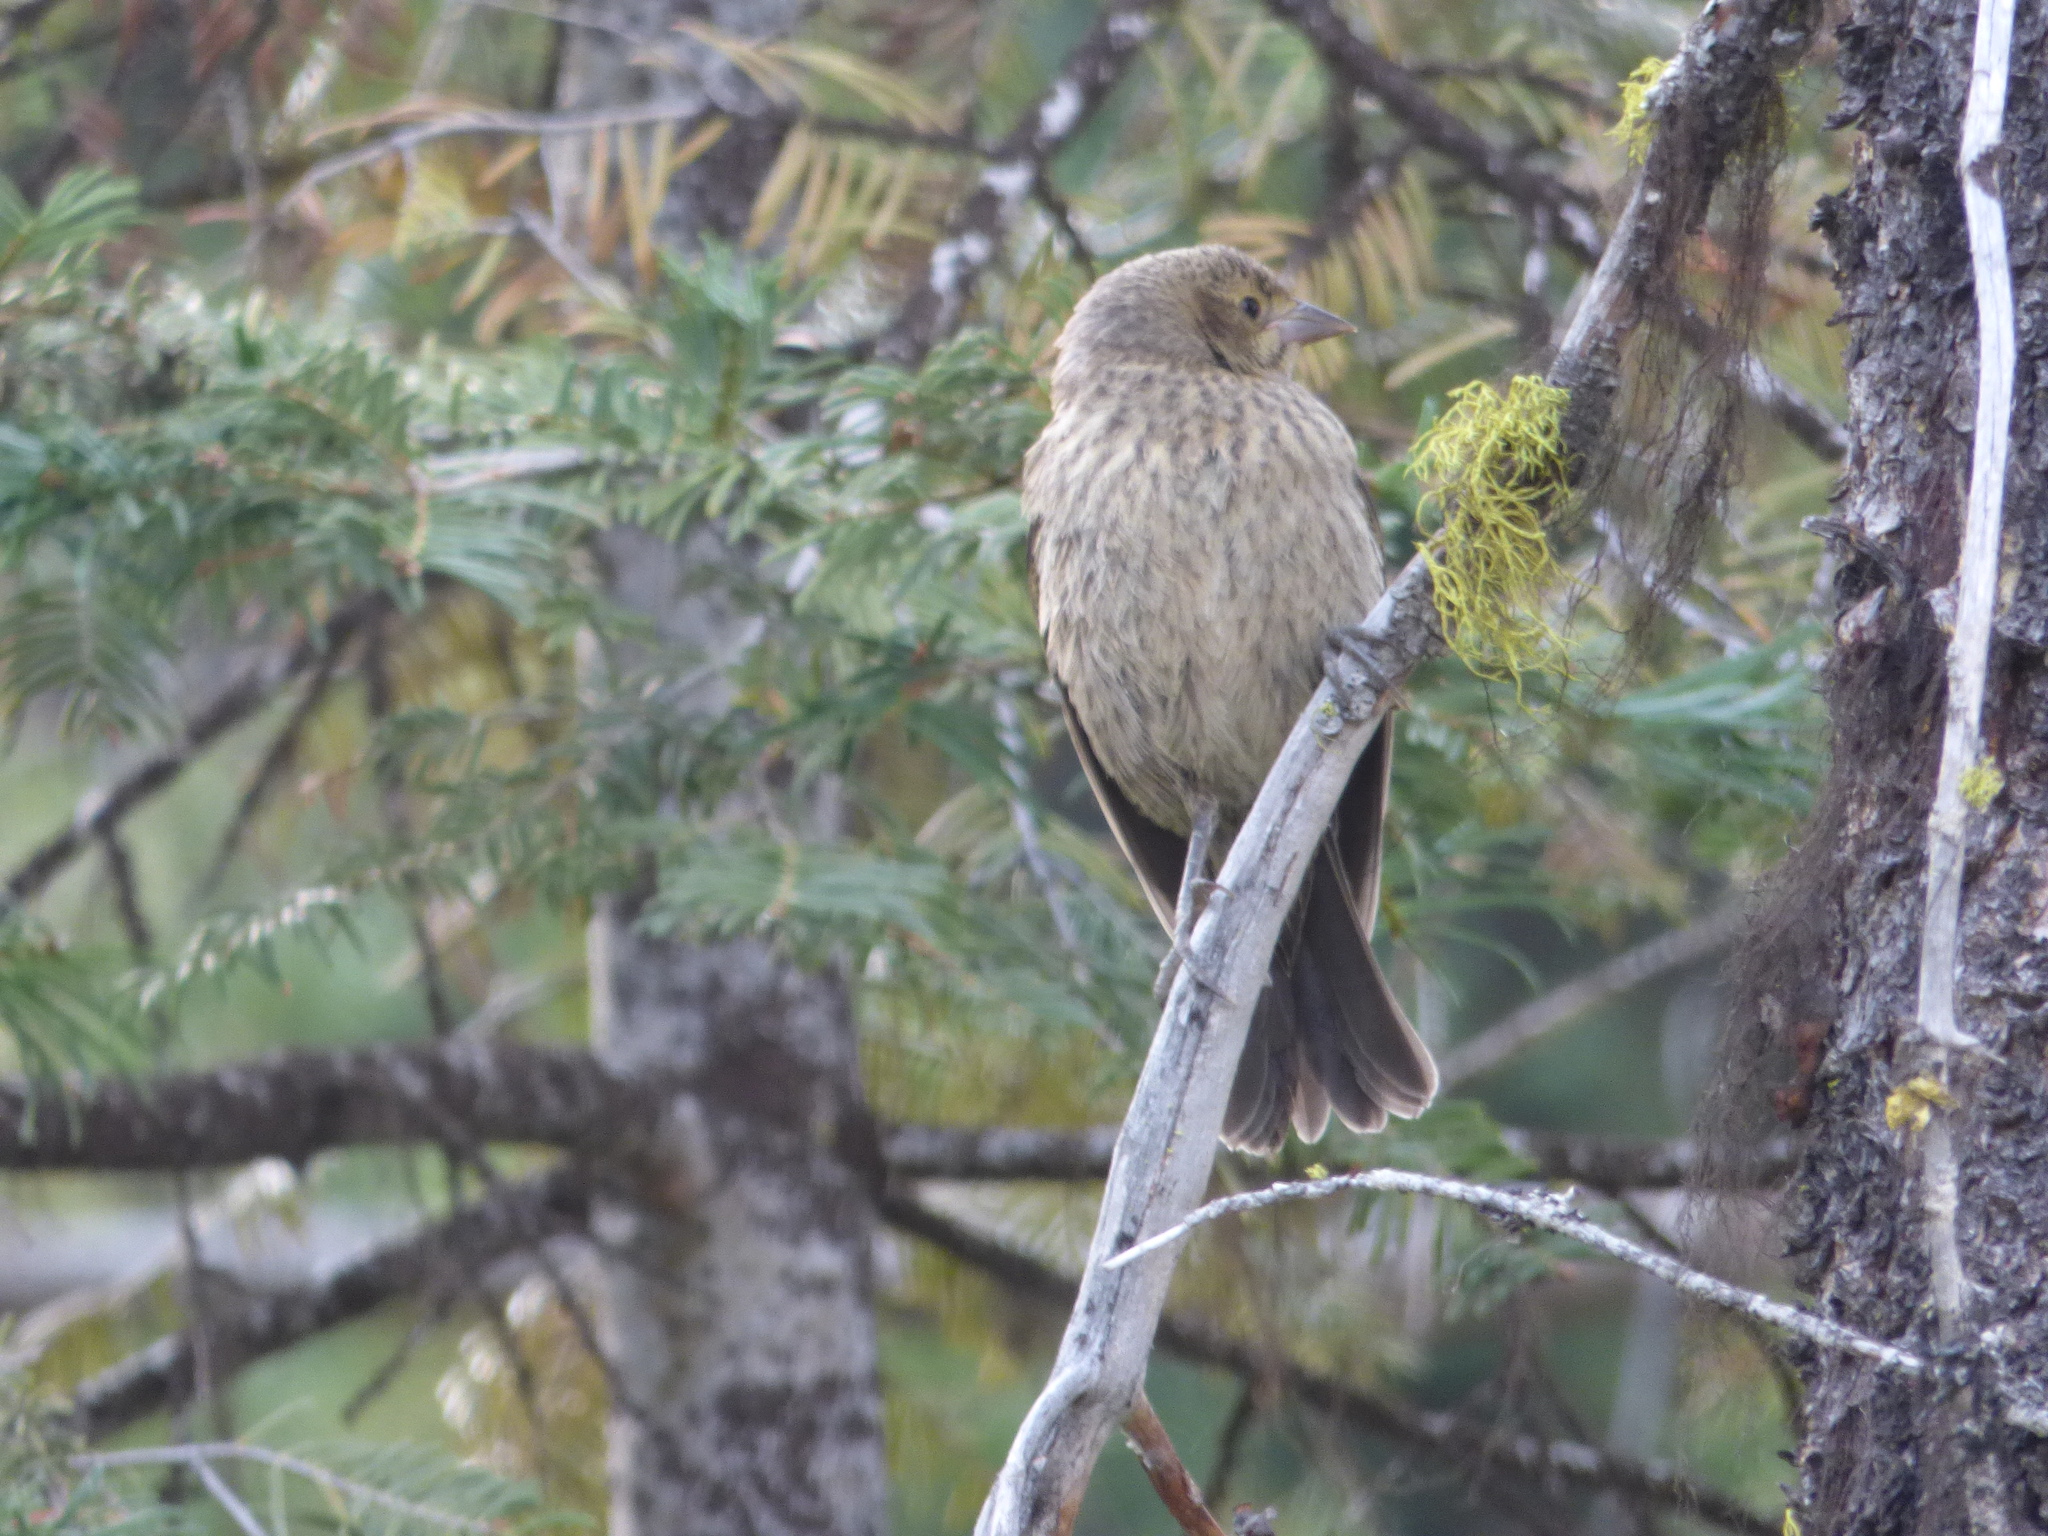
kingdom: Animalia
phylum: Chordata
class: Aves
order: Passeriformes
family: Icteridae
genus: Molothrus
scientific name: Molothrus ater
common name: Brown-headed cowbird
